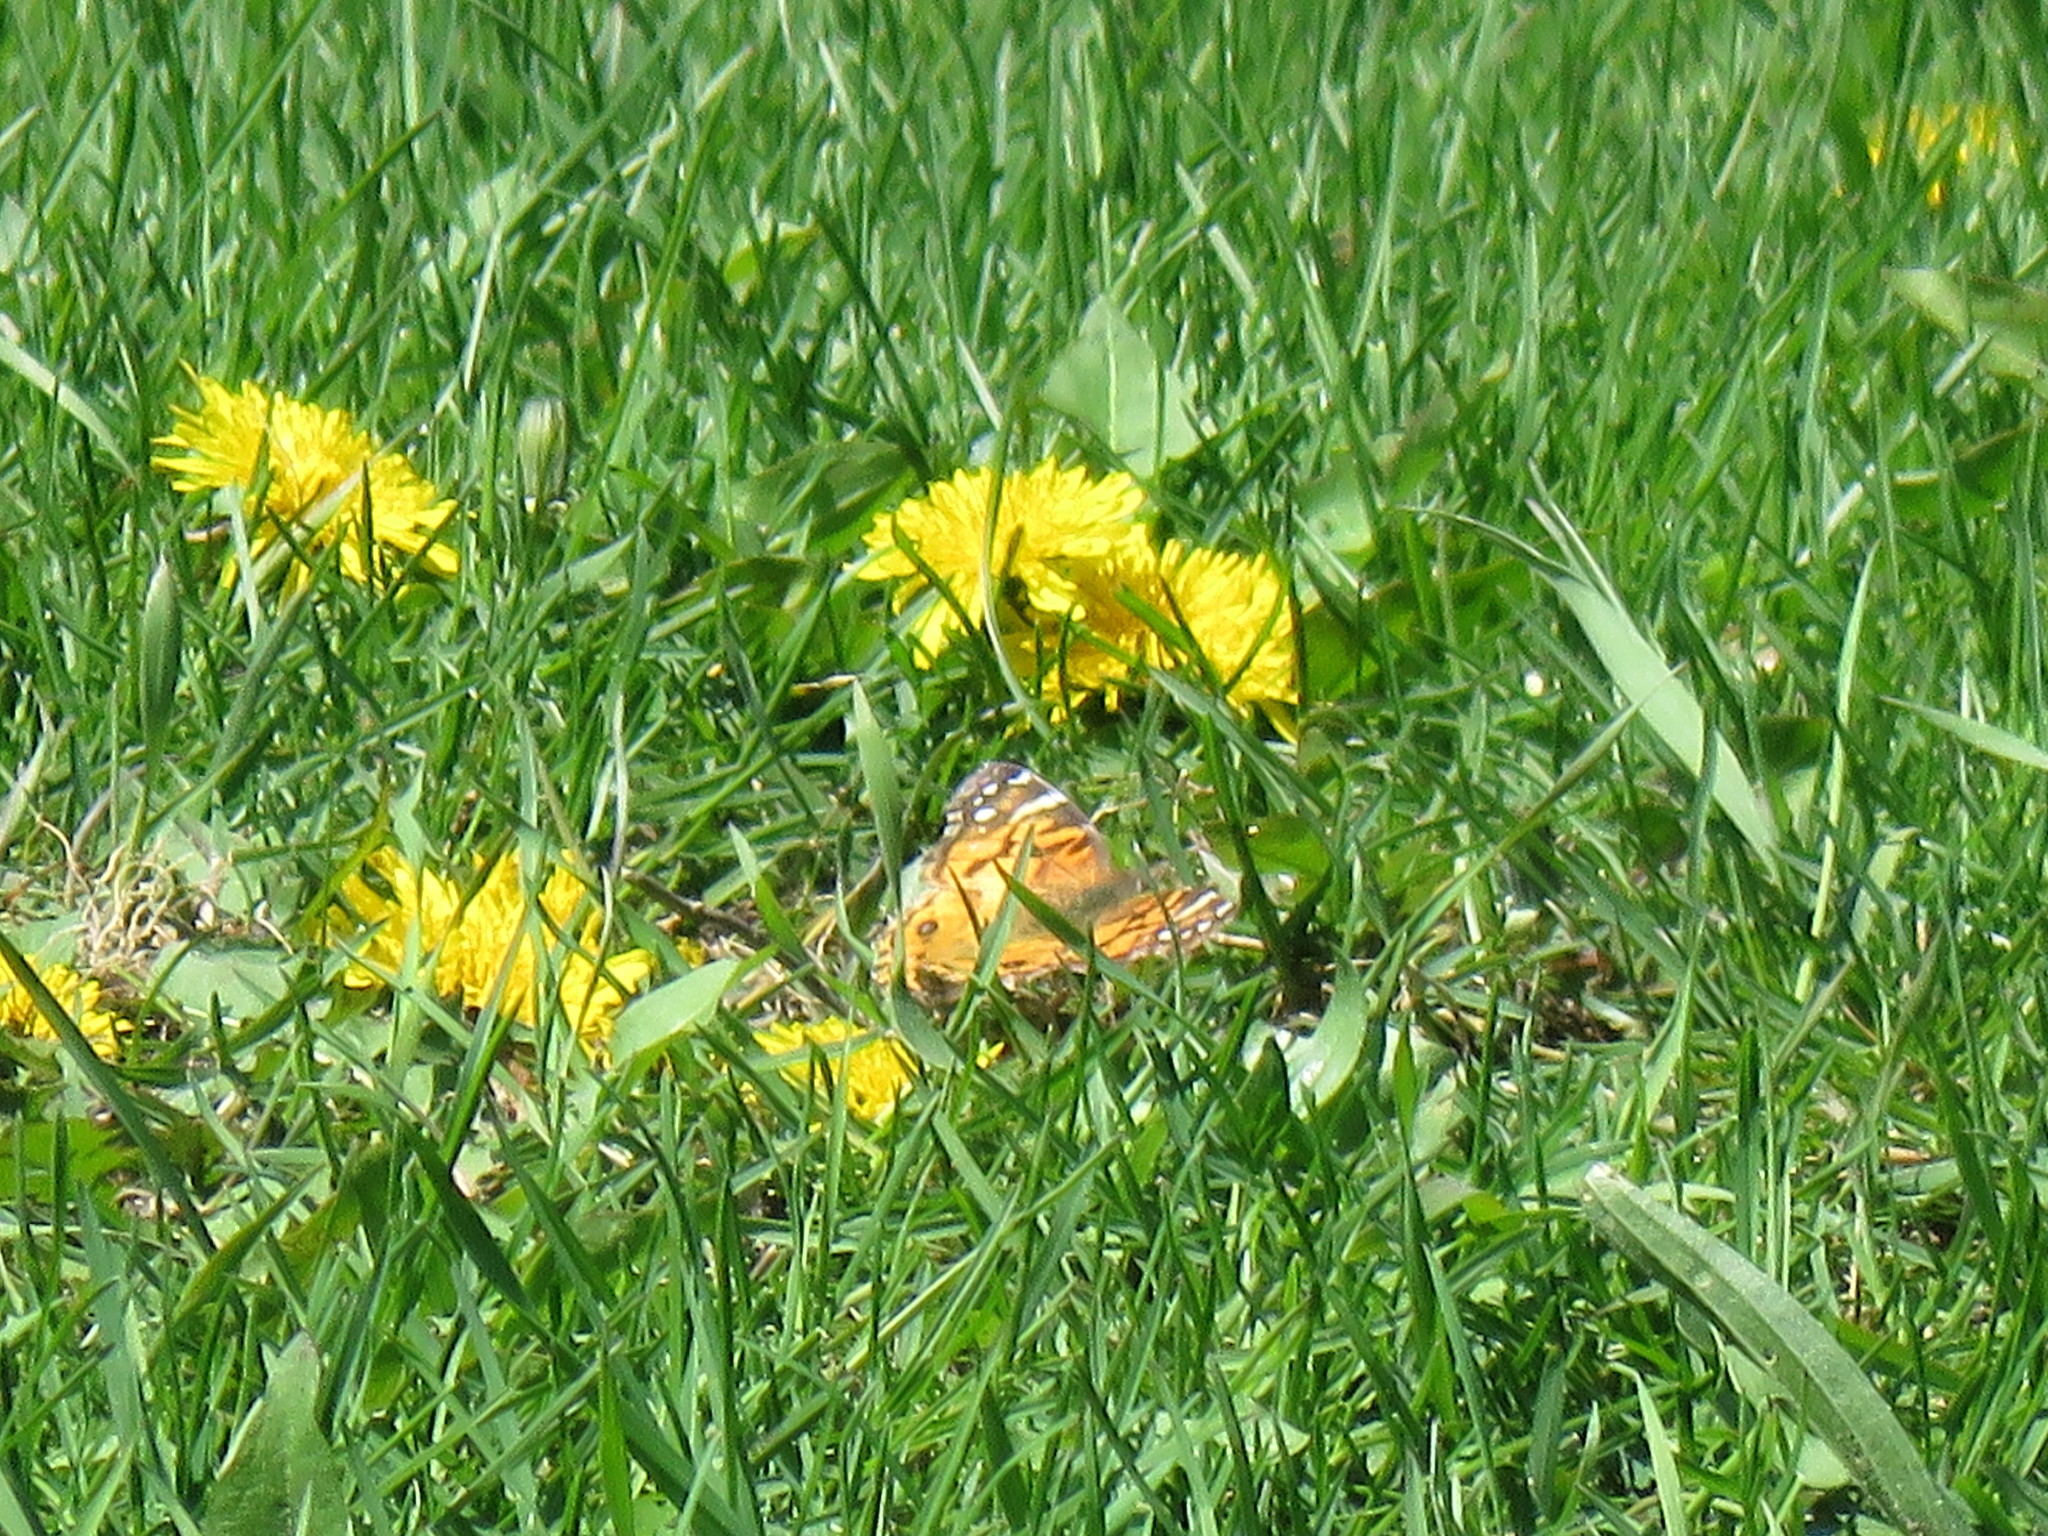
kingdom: Animalia
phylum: Arthropoda
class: Insecta
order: Lepidoptera
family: Nymphalidae
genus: Vanessa
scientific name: Vanessa virginiensis
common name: American lady
